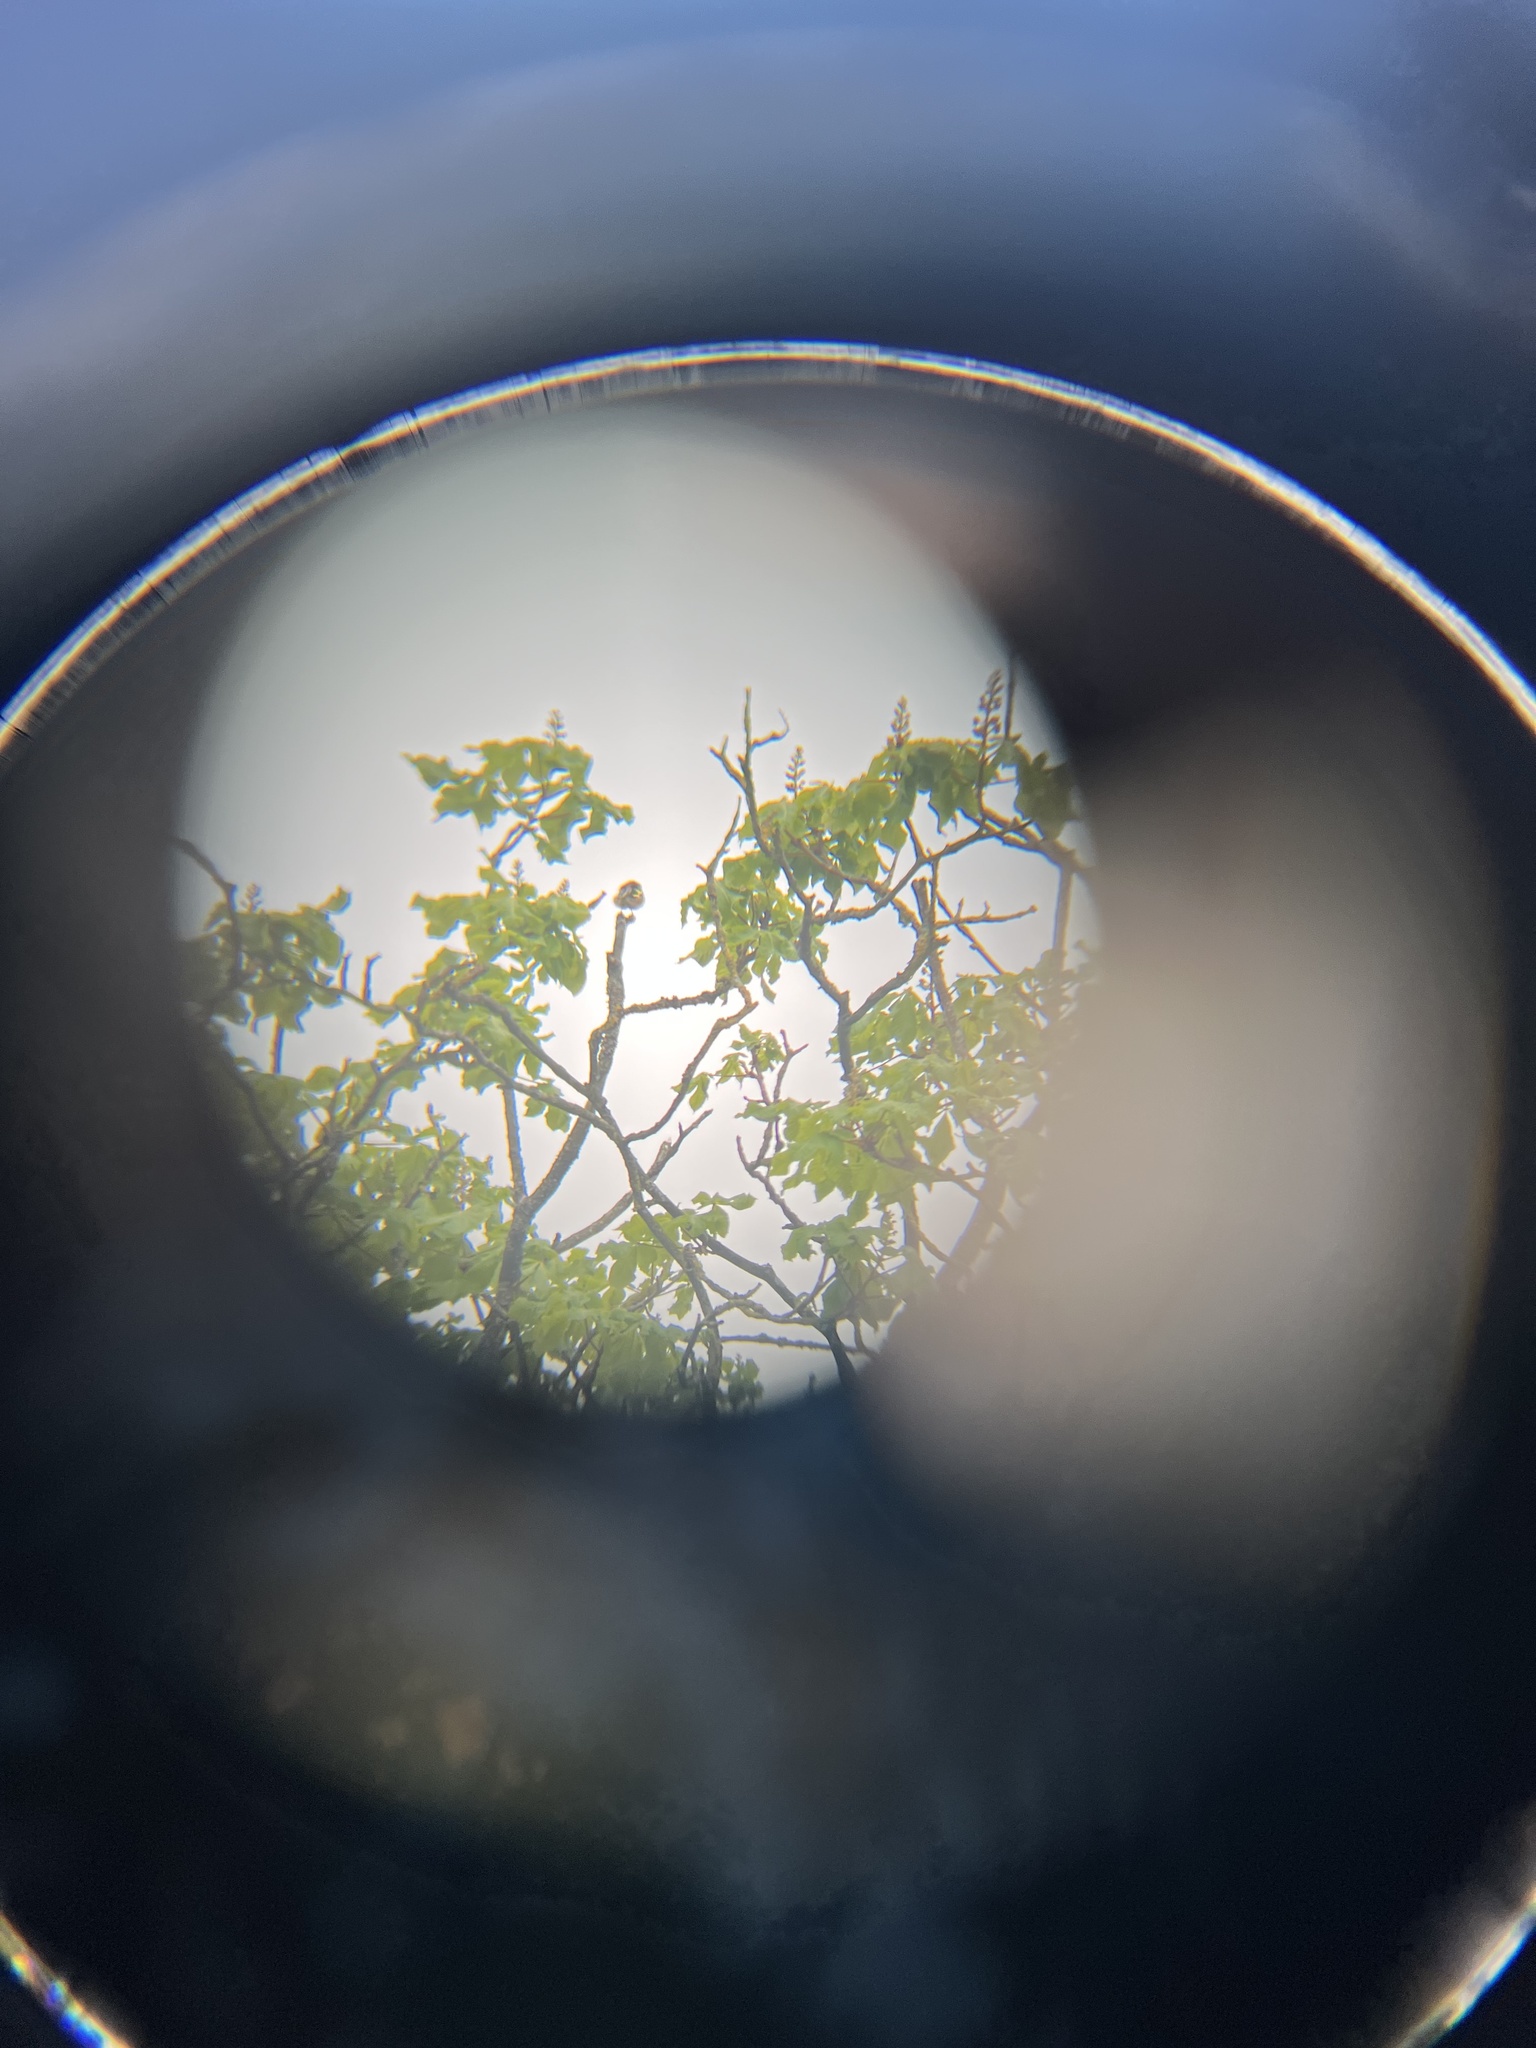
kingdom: Animalia
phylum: Chordata
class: Aves
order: Passeriformes
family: Fringillidae
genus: Carduelis
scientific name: Carduelis carduelis
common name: European goldfinch
